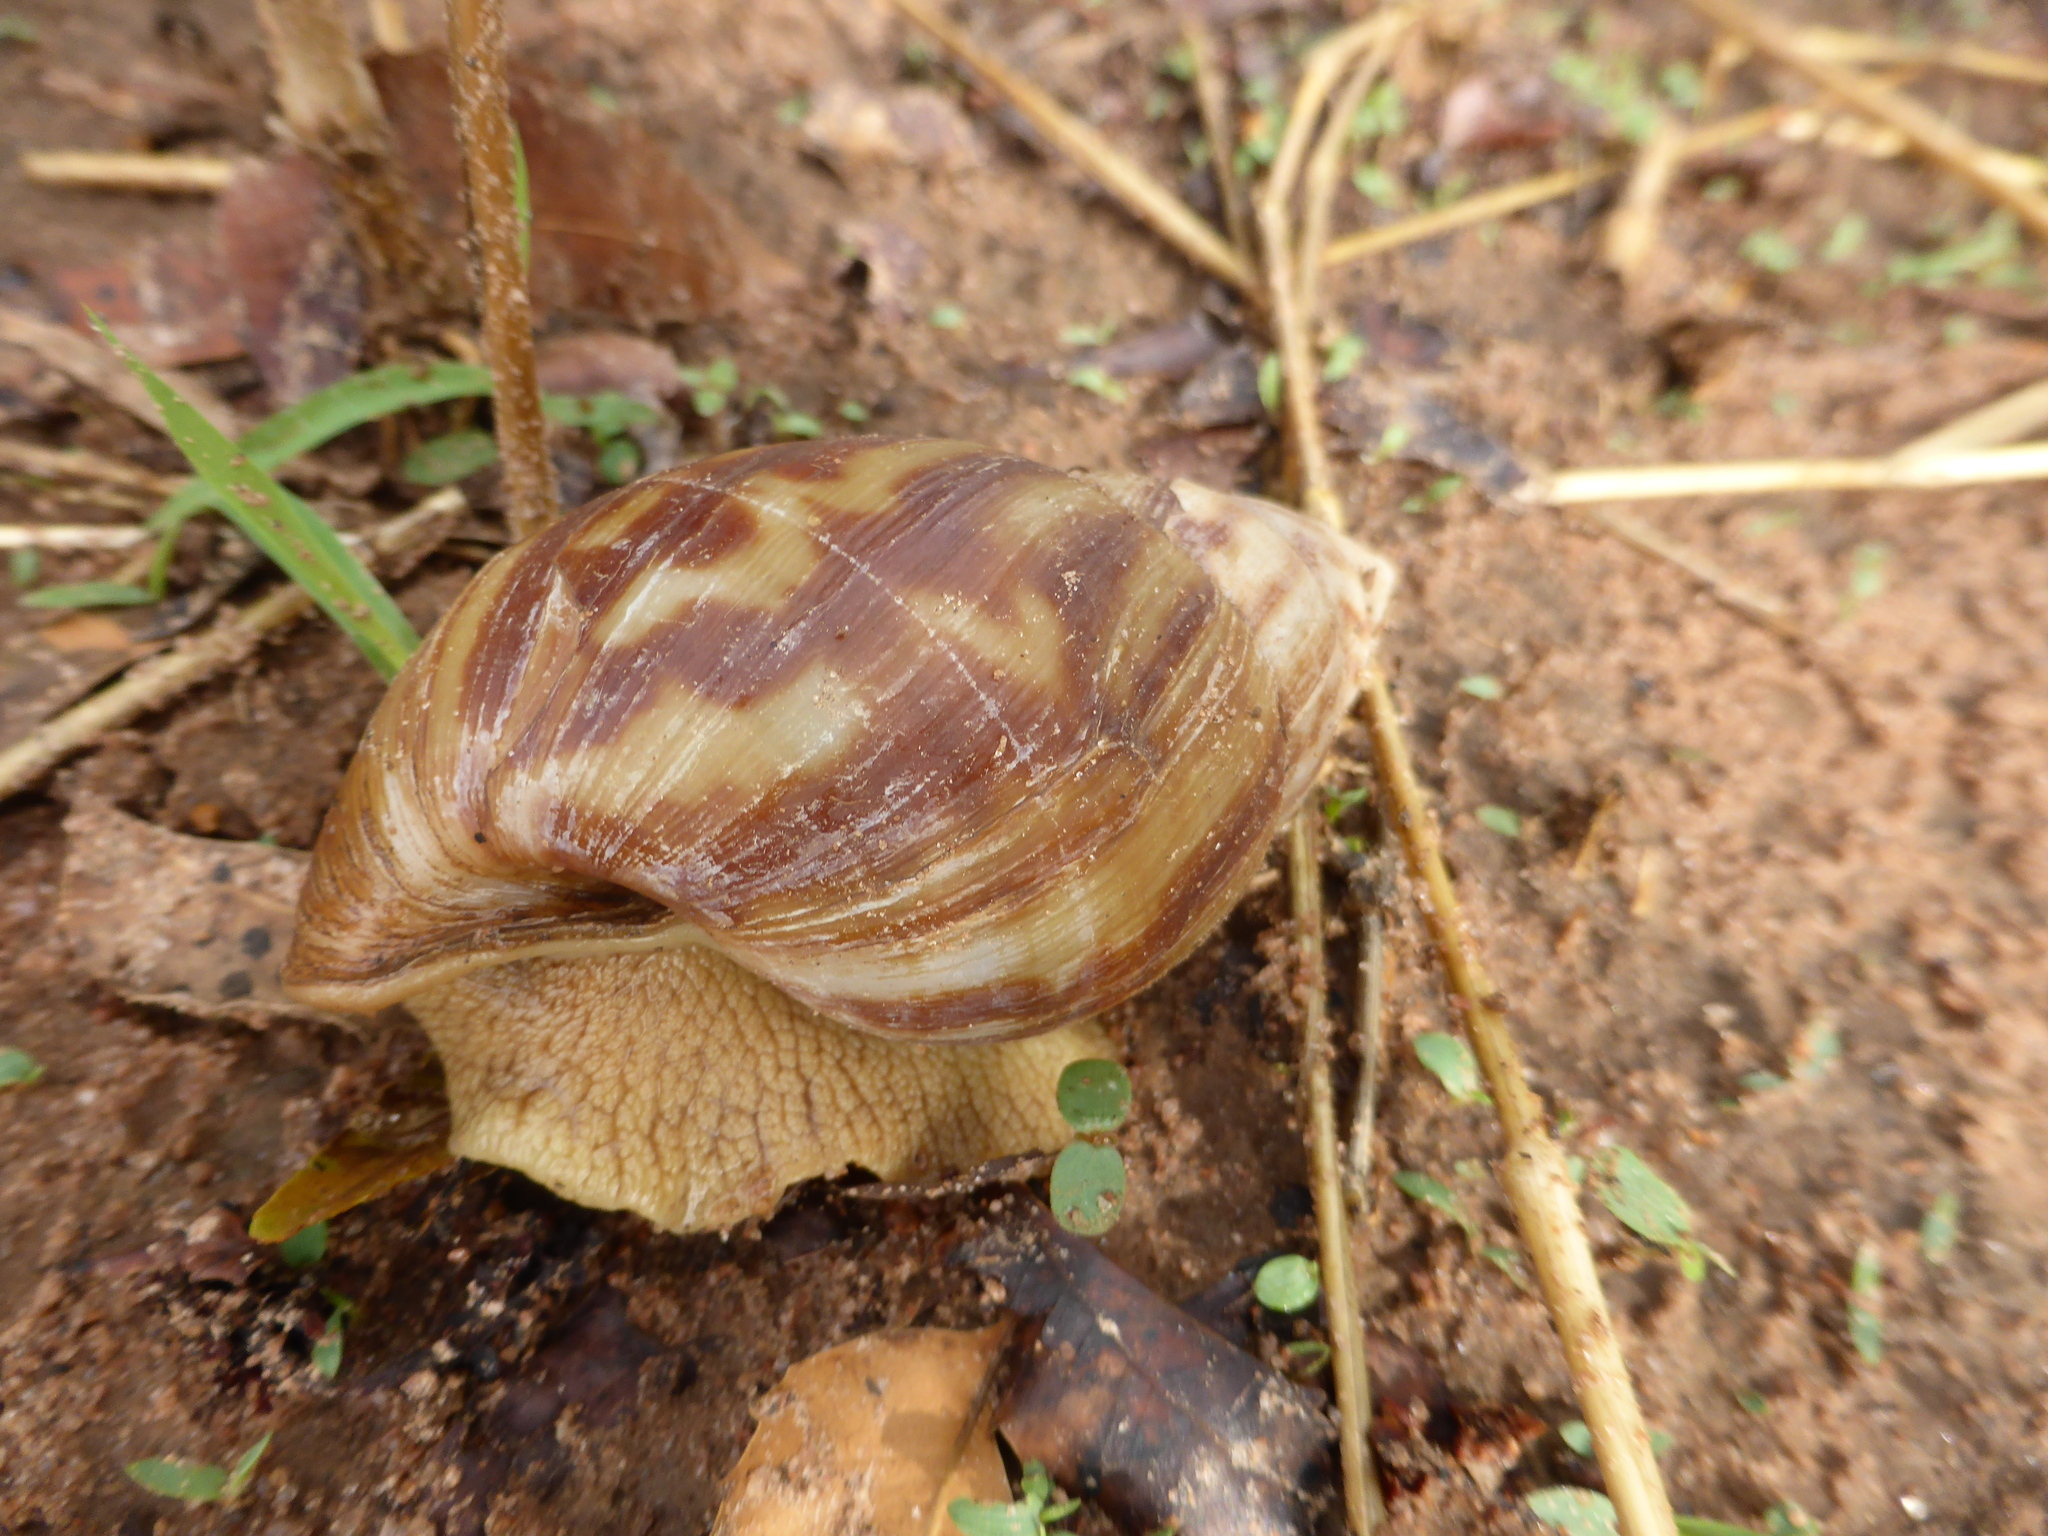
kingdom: Animalia
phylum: Mollusca
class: Gastropoda
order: Stylommatophora
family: Achatinidae
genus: Lissachatina
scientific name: Lissachatina fulica
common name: Giant african snail
